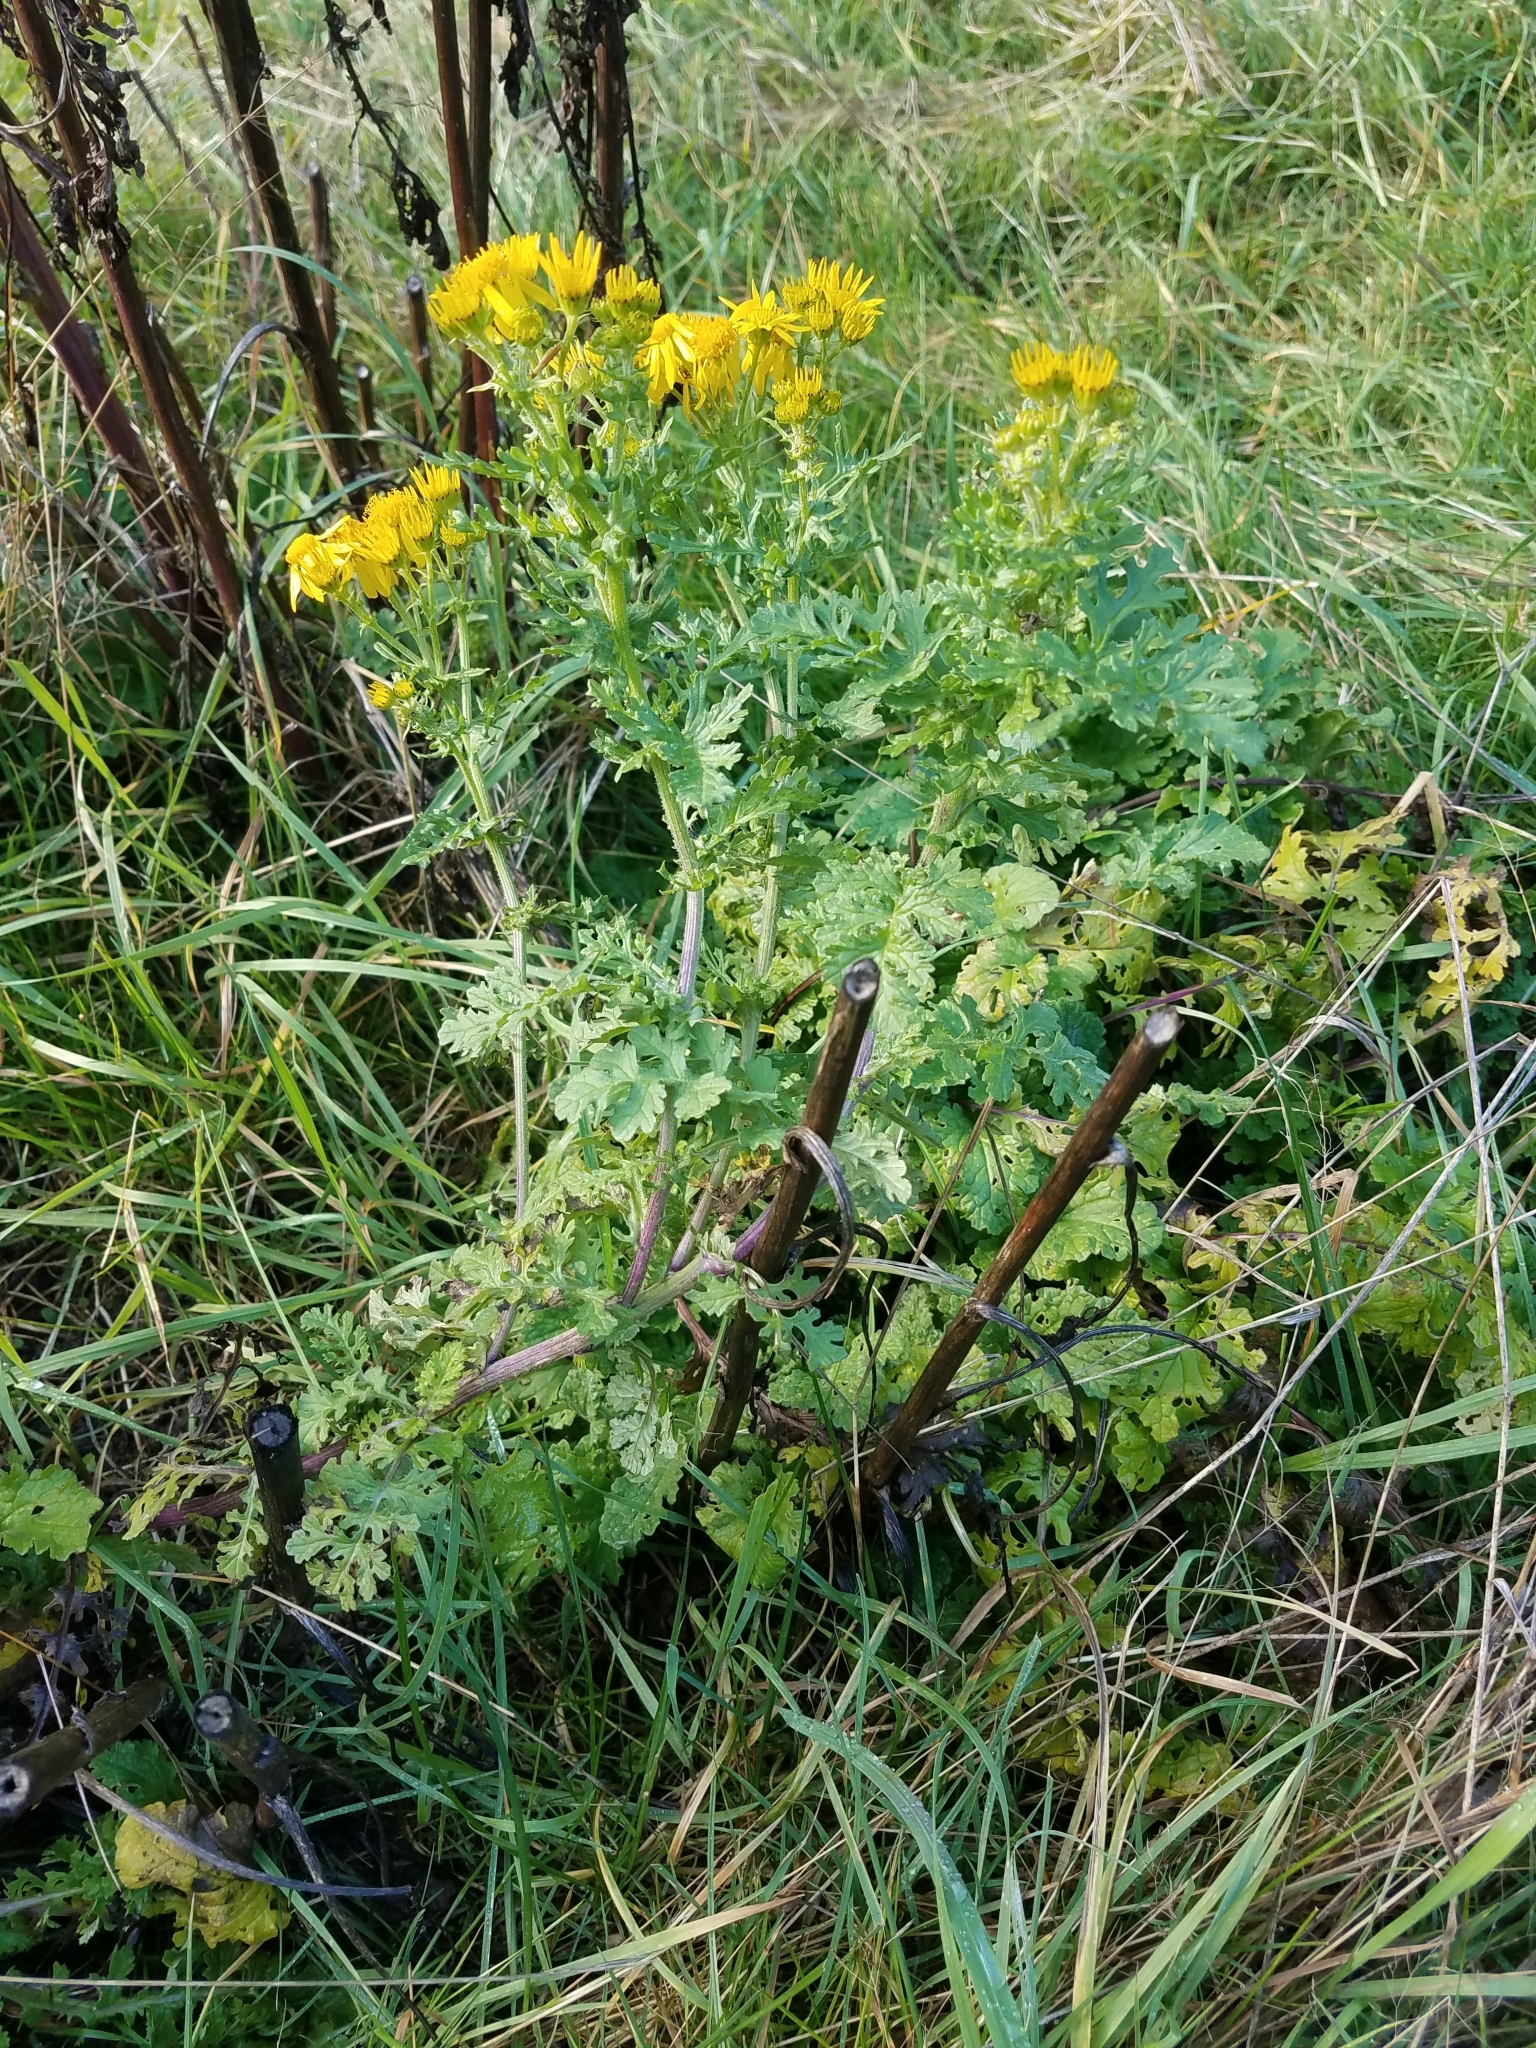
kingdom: Plantae
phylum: Tracheophyta
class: Magnoliopsida
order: Asterales
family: Asteraceae
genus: Jacobaea
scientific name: Jacobaea vulgaris
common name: Stinking willie
